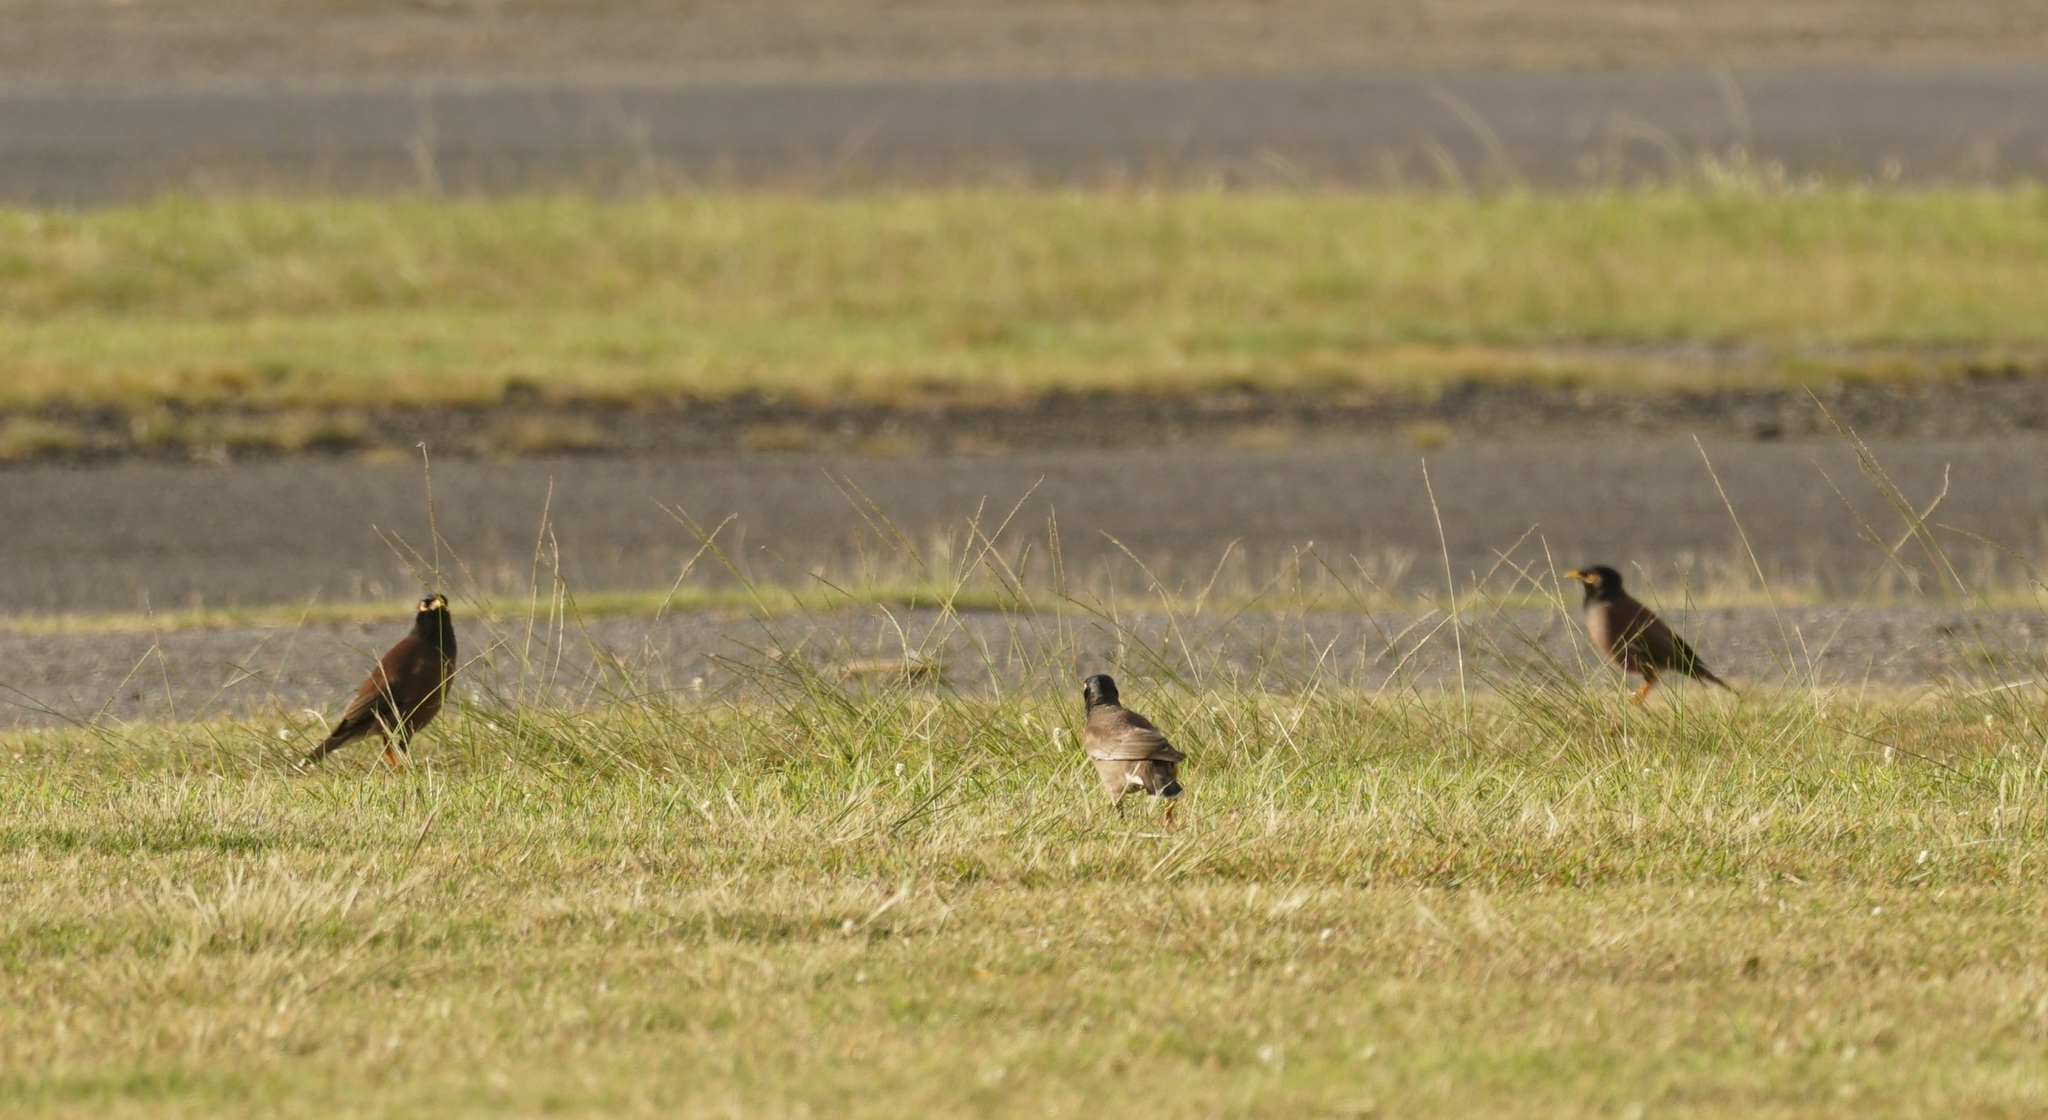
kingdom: Animalia
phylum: Chordata
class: Aves
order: Passeriformes
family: Sturnidae
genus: Acridotheres
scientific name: Acridotheres tristis
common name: Common myna
